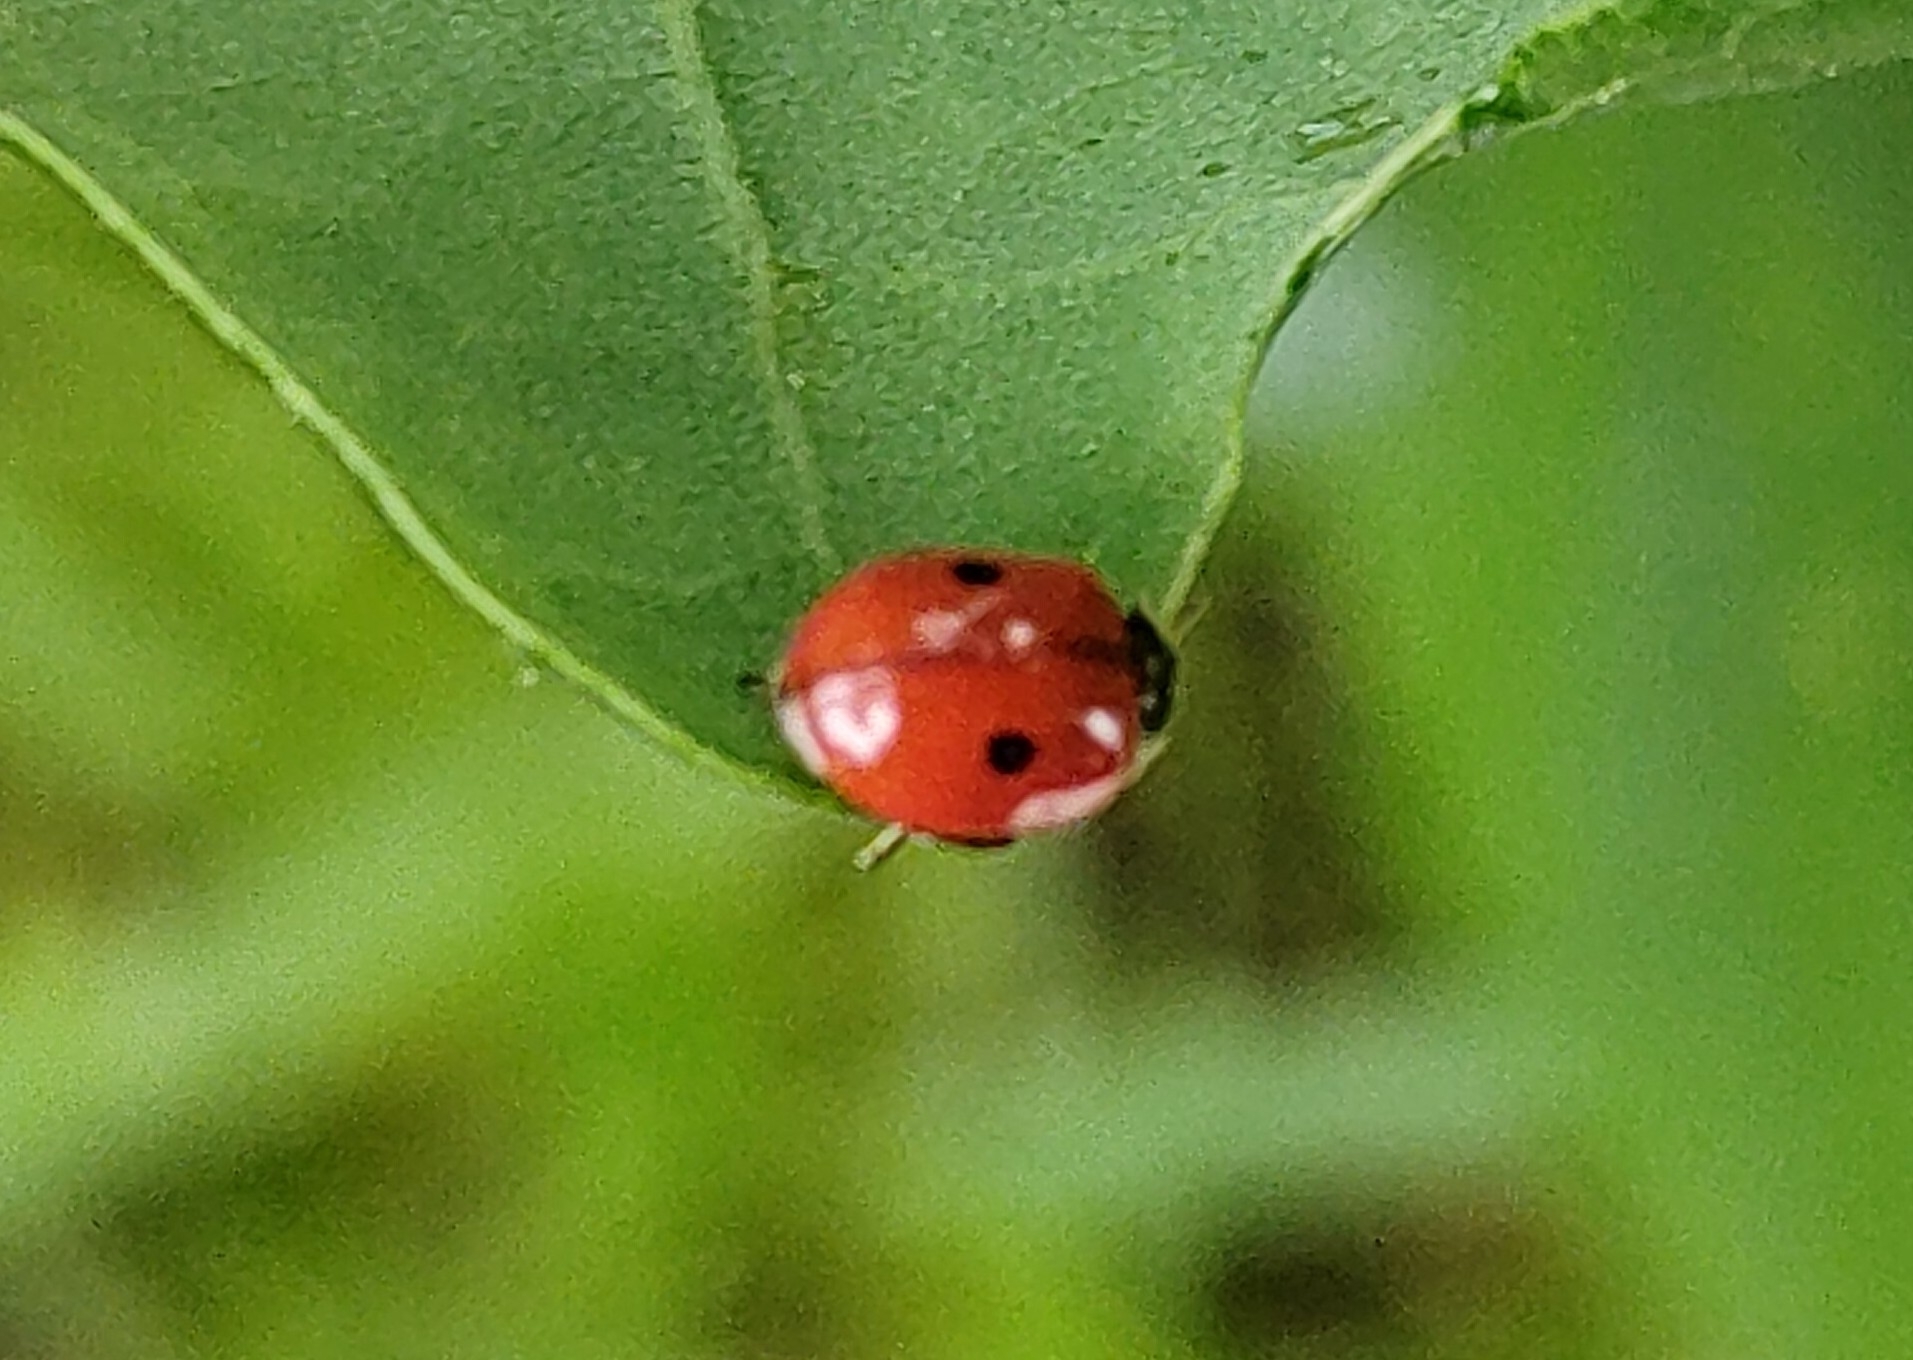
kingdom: Animalia
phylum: Arthropoda
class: Insecta
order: Coleoptera
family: Coccinellidae
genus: Adalia
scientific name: Adalia bipunctata
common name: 2-spot ladybird
